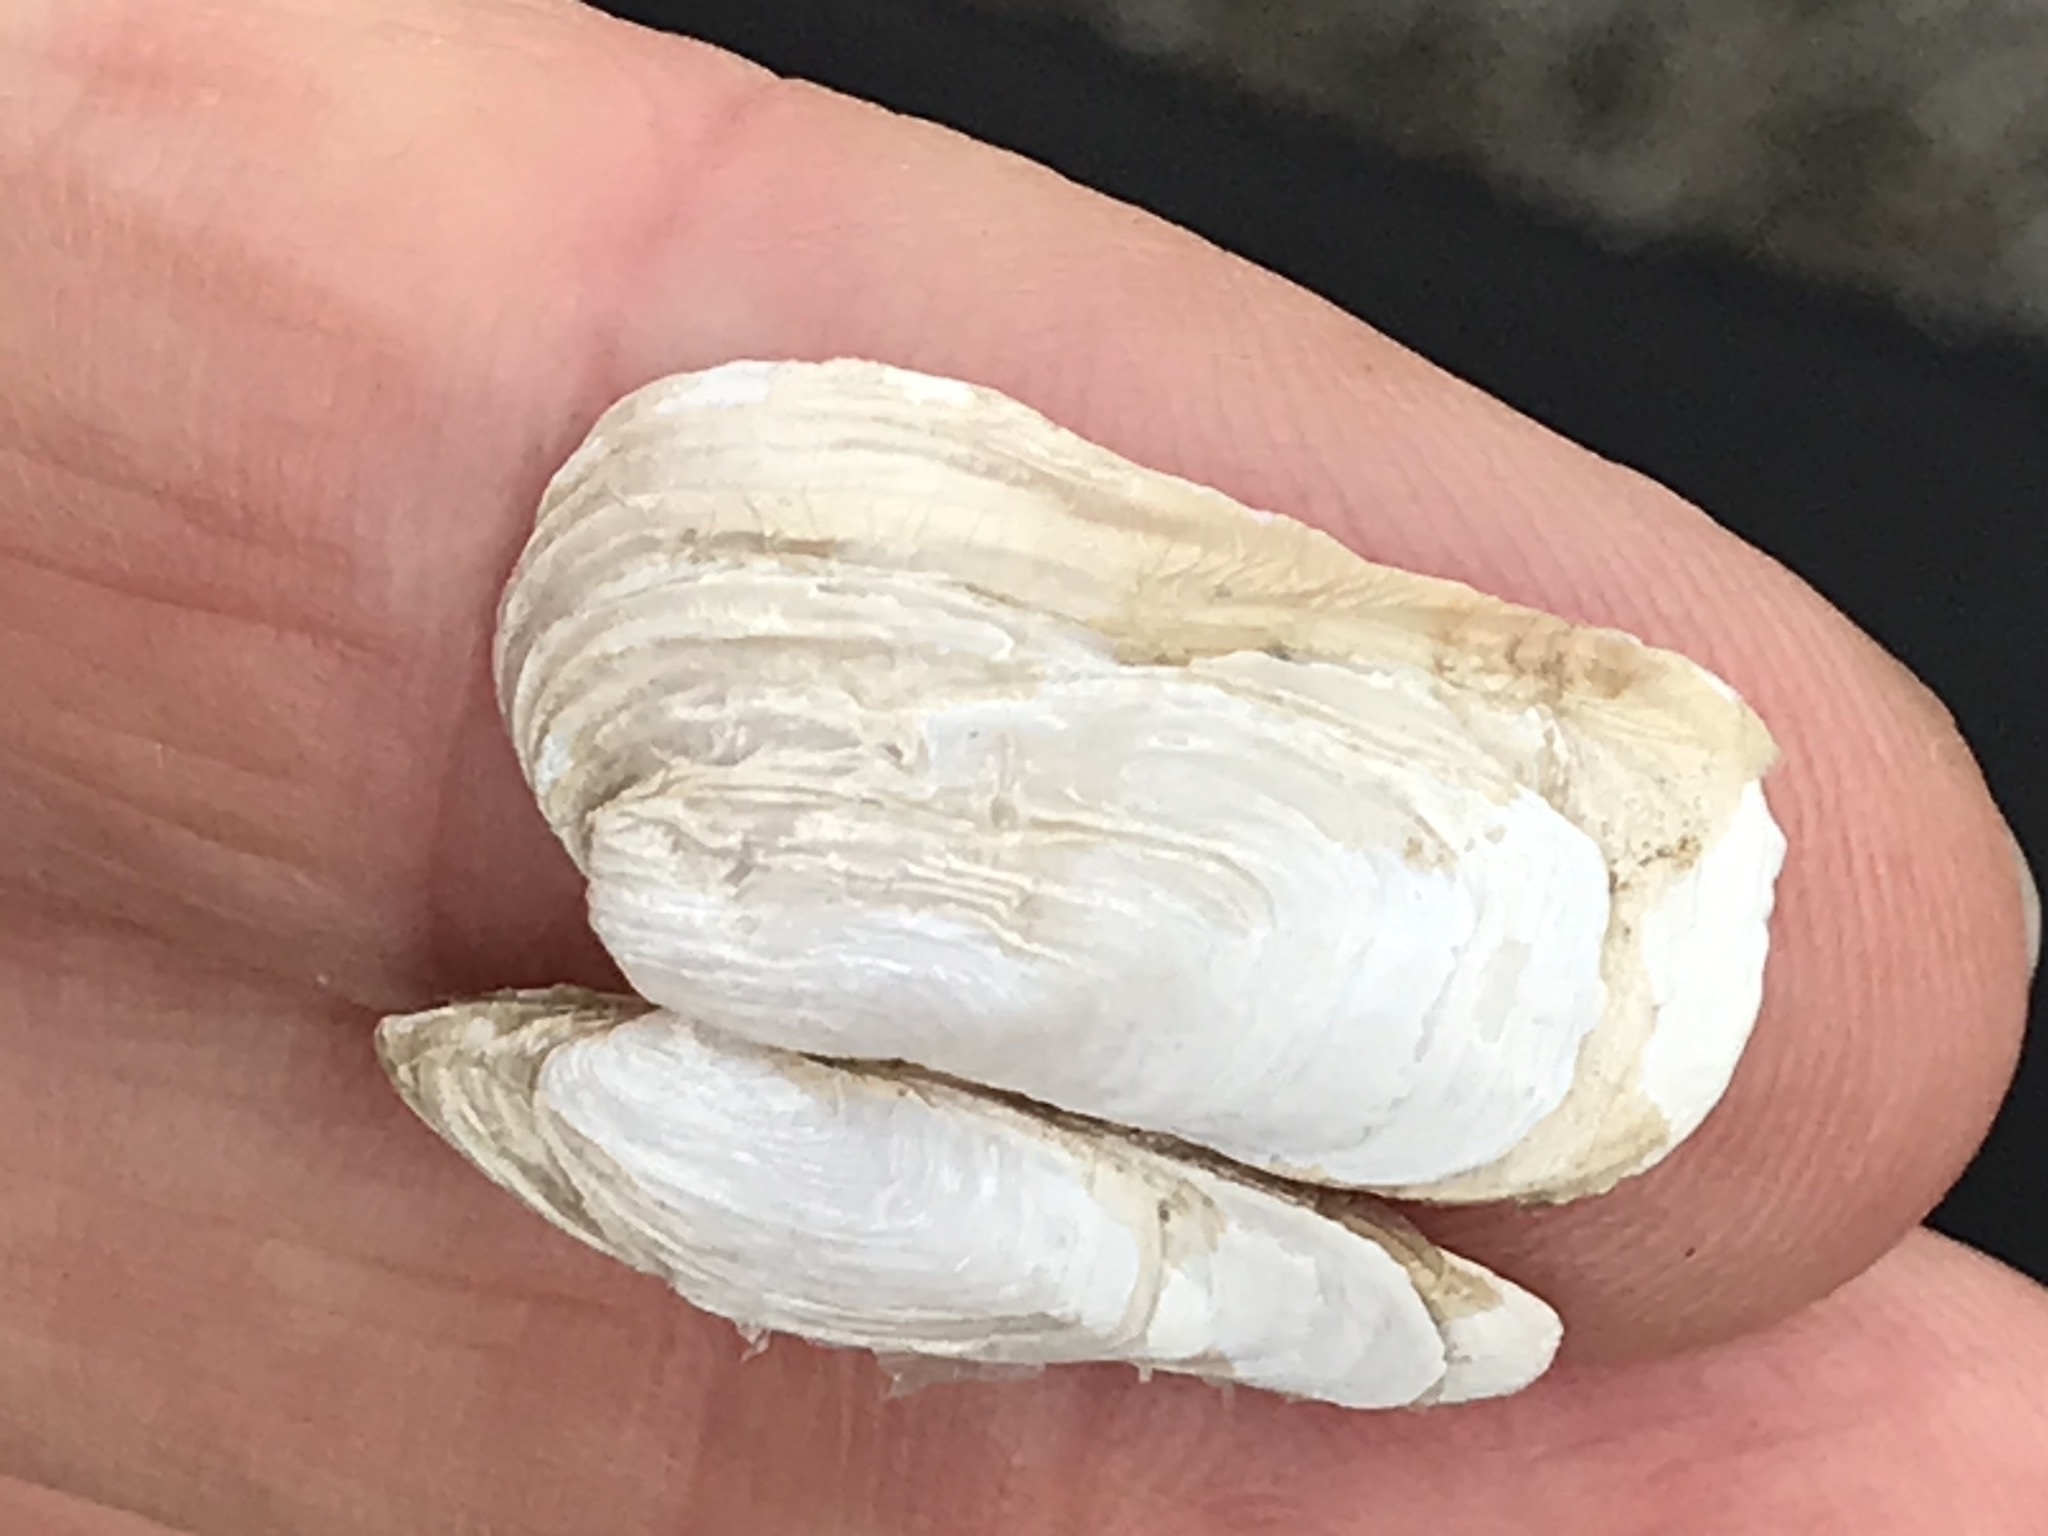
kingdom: Animalia
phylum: Mollusca
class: Bivalvia
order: Adapedonta
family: Hiatellidae
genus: Hiatella
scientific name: Hiatella arctica
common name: Arctic hiatella
